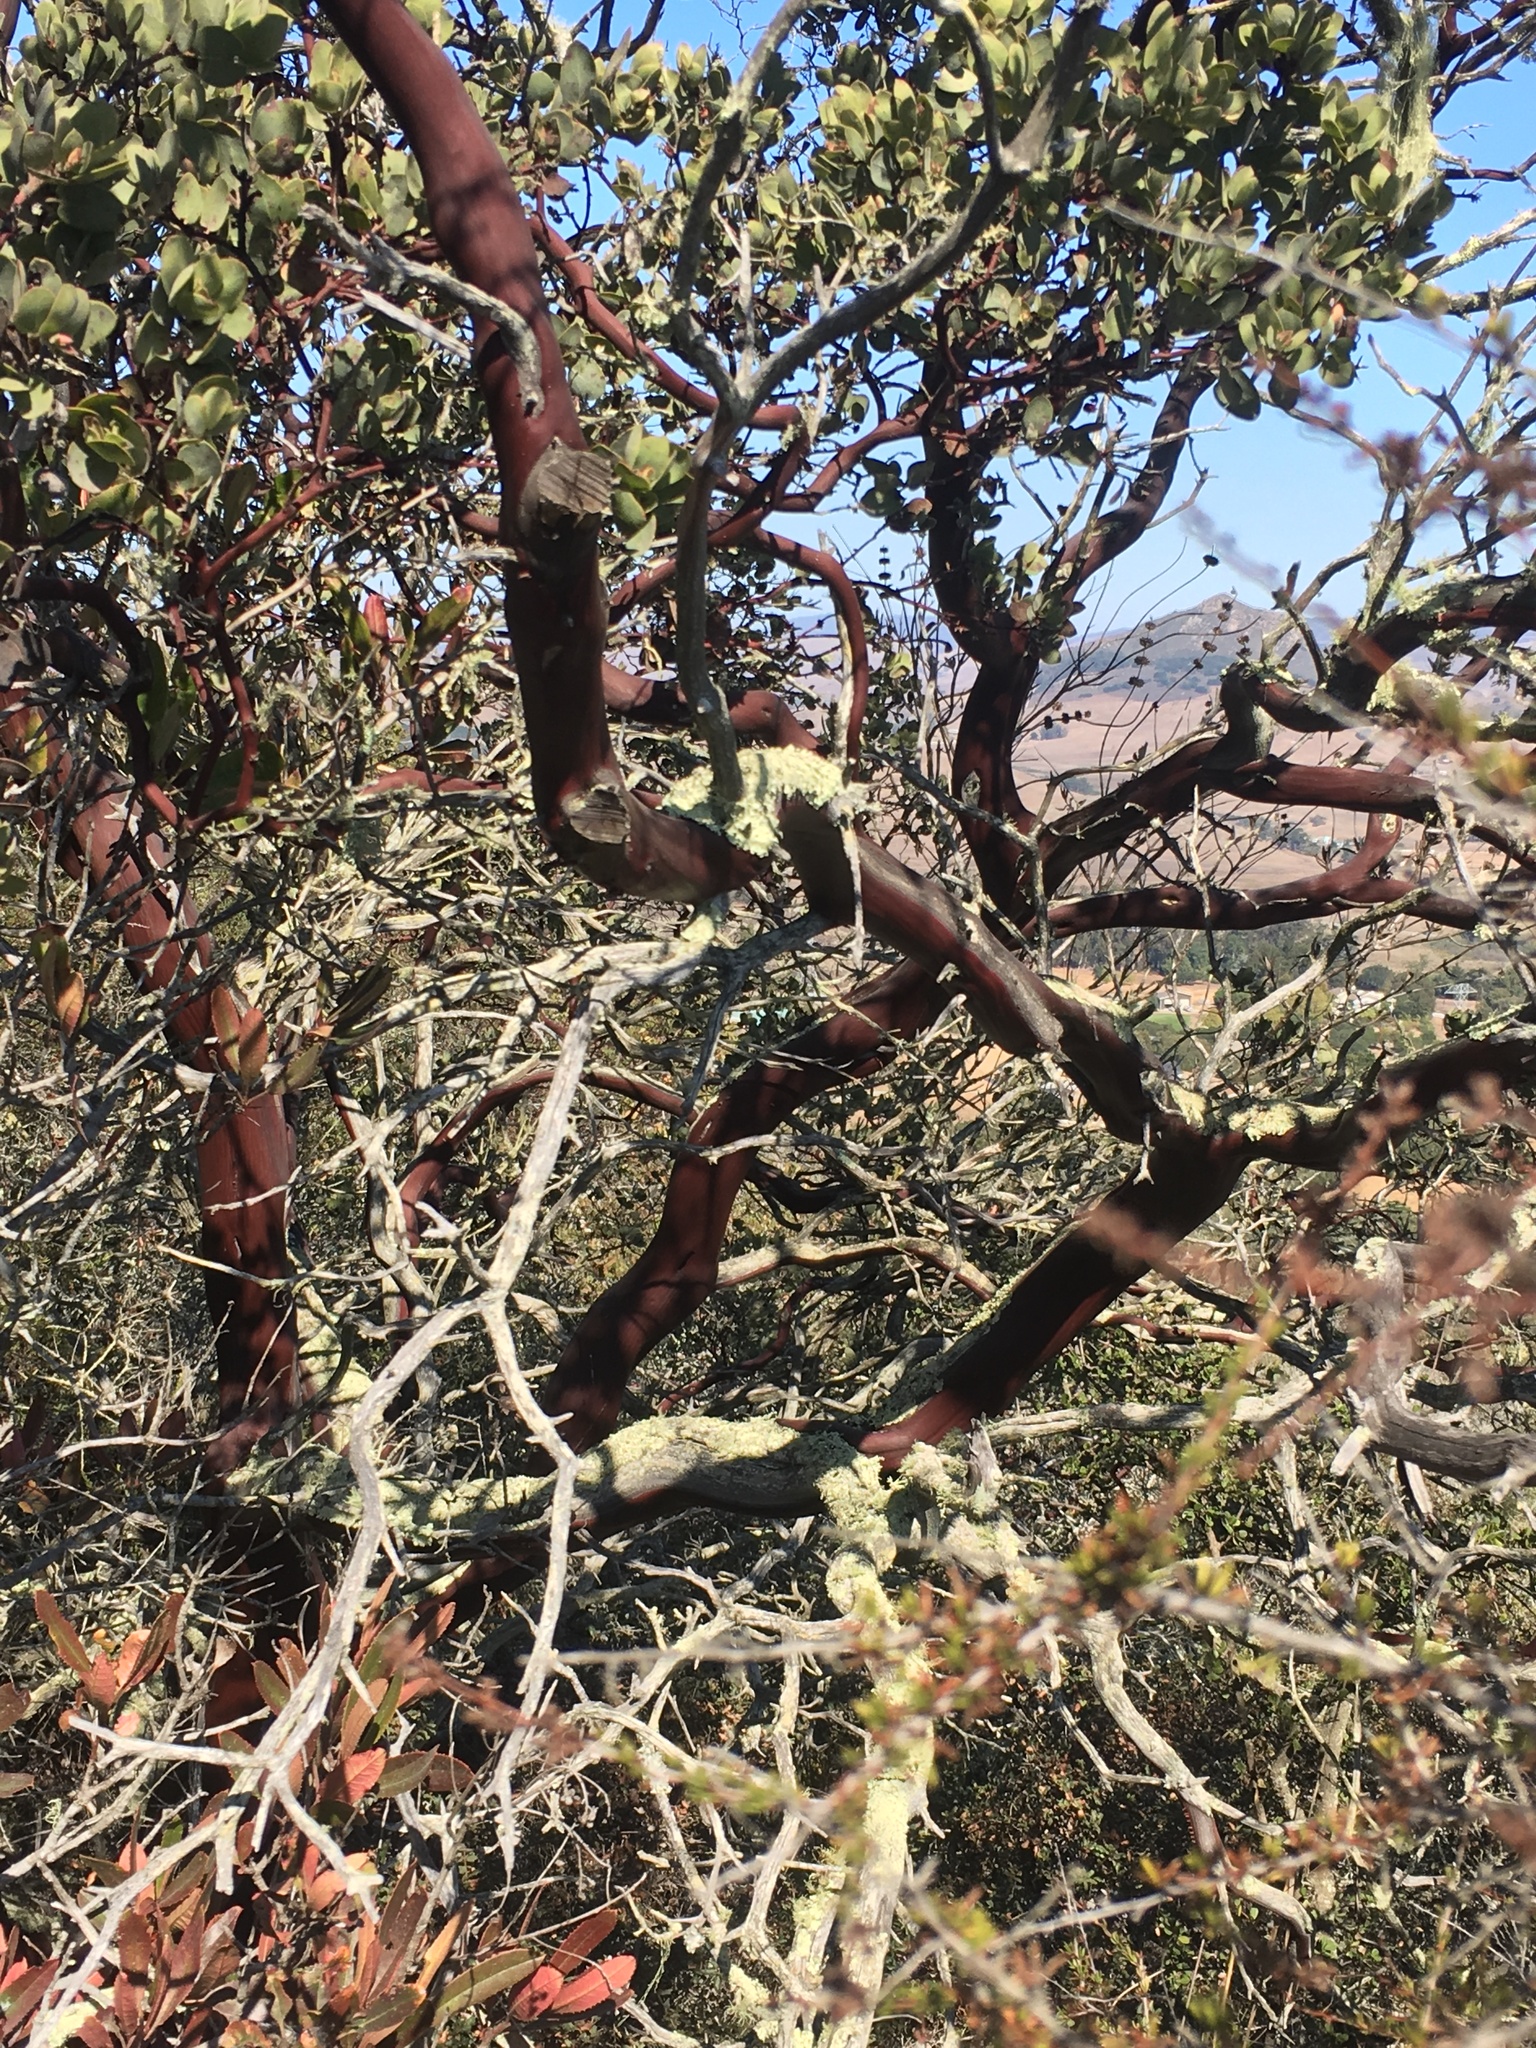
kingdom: Plantae
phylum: Tracheophyta
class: Magnoliopsida
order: Ericales
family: Ericaceae
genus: Arctostaphylos
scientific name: Arctostaphylos obispoensis
